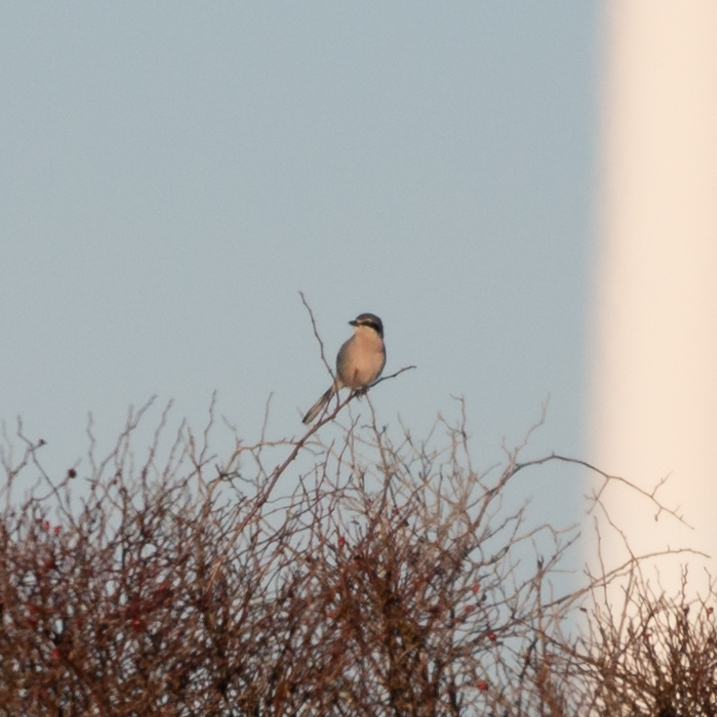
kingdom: Animalia
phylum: Chordata
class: Aves
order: Passeriformes
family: Laniidae
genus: Lanius
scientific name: Lanius meridionalis
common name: Iberian grey shrike
